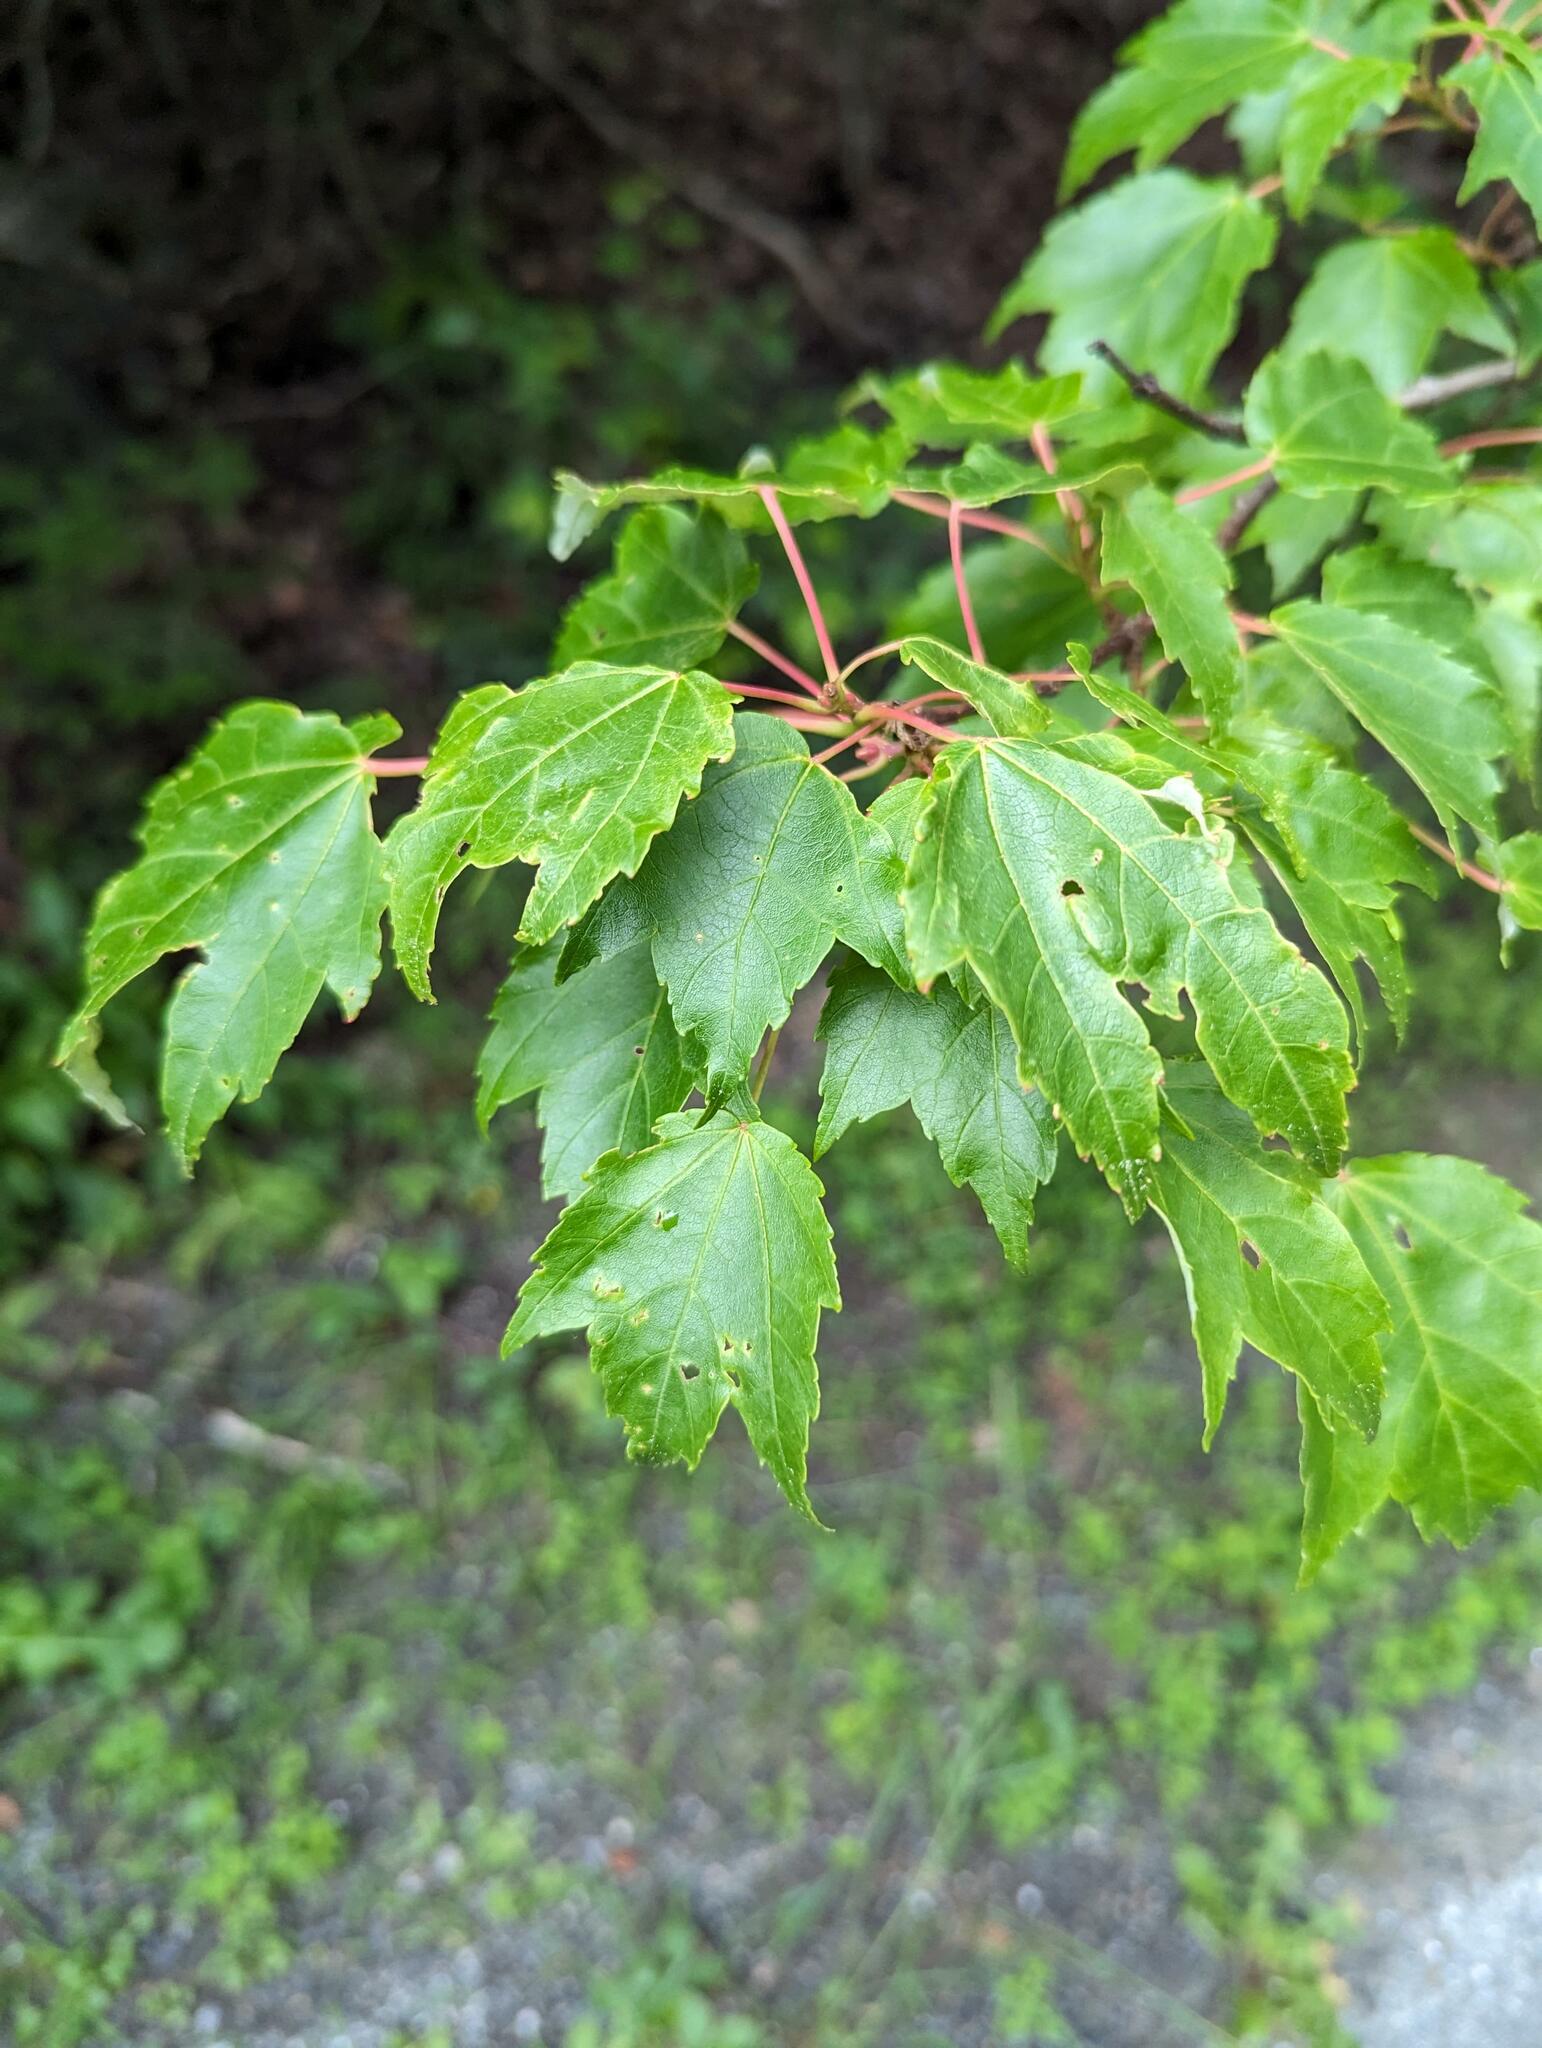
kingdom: Plantae
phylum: Tracheophyta
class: Magnoliopsida
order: Sapindales
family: Sapindaceae
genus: Acer
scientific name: Acer rubrum
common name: Red maple
